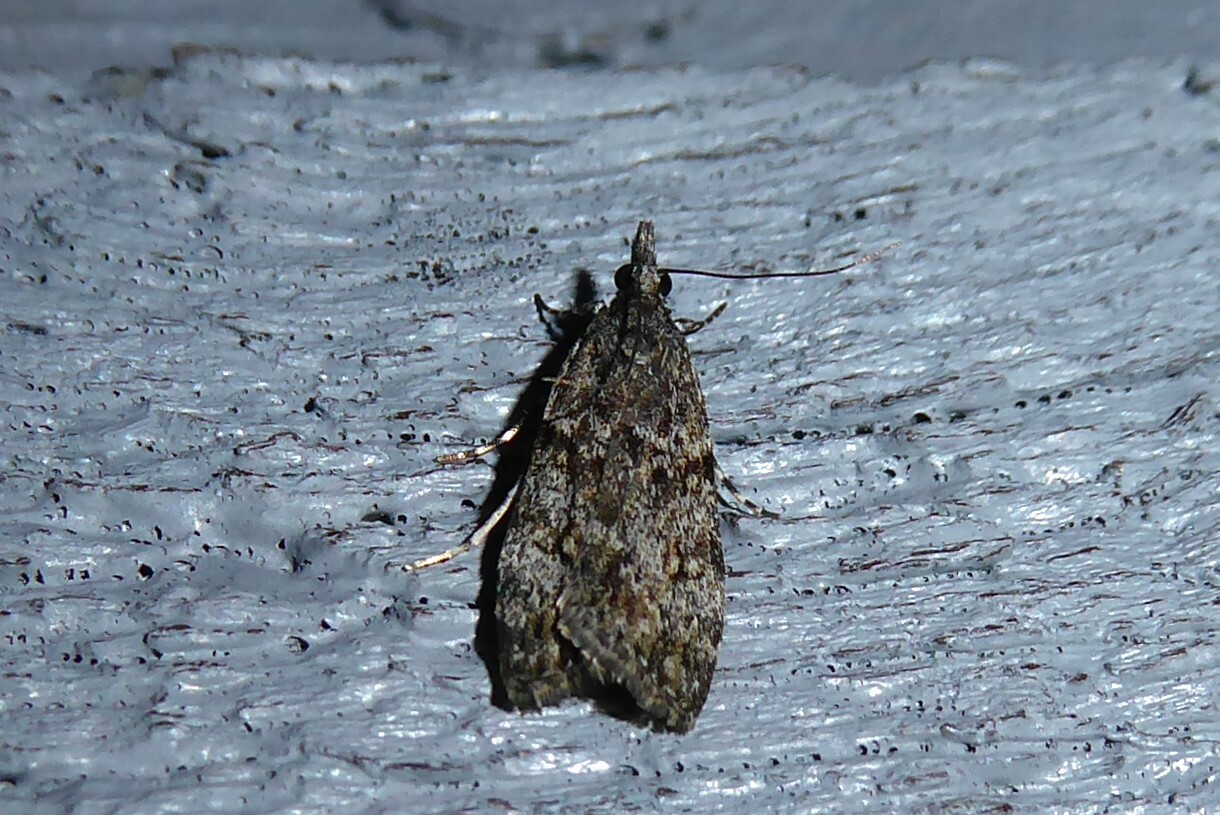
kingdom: Animalia
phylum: Arthropoda
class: Insecta
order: Lepidoptera
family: Crambidae
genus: Eudonia
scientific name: Eudonia cymatias
